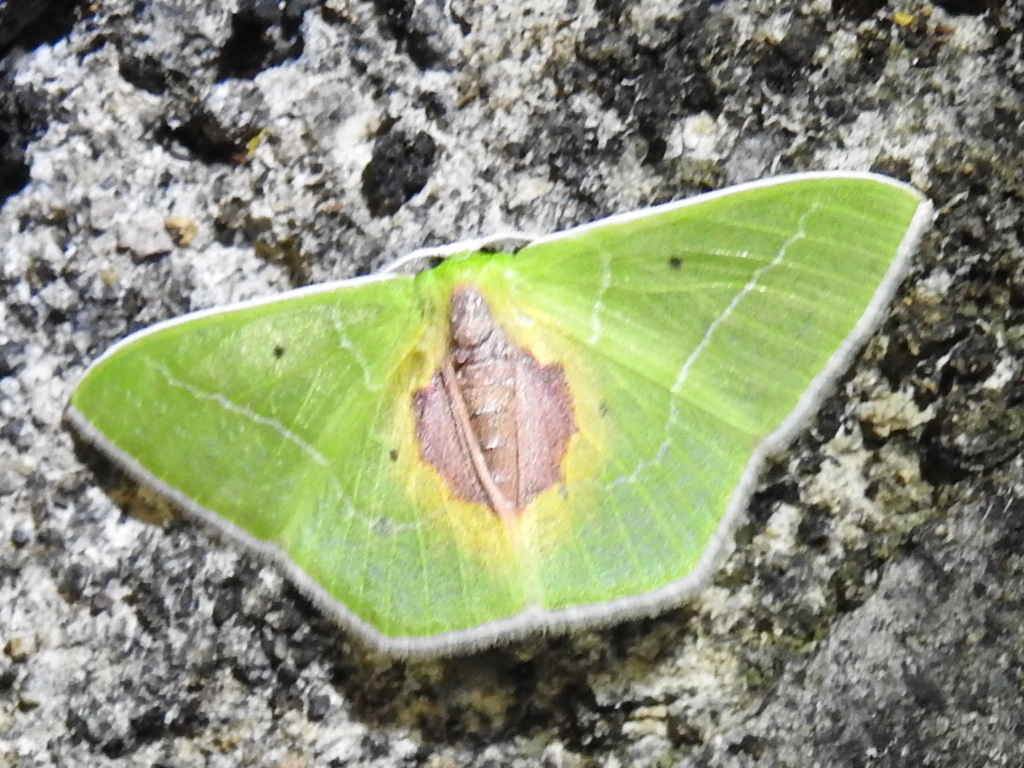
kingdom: Animalia
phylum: Arthropoda
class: Insecta
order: Lepidoptera
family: Geometridae
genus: Nemoria
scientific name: Nemoria astraea
